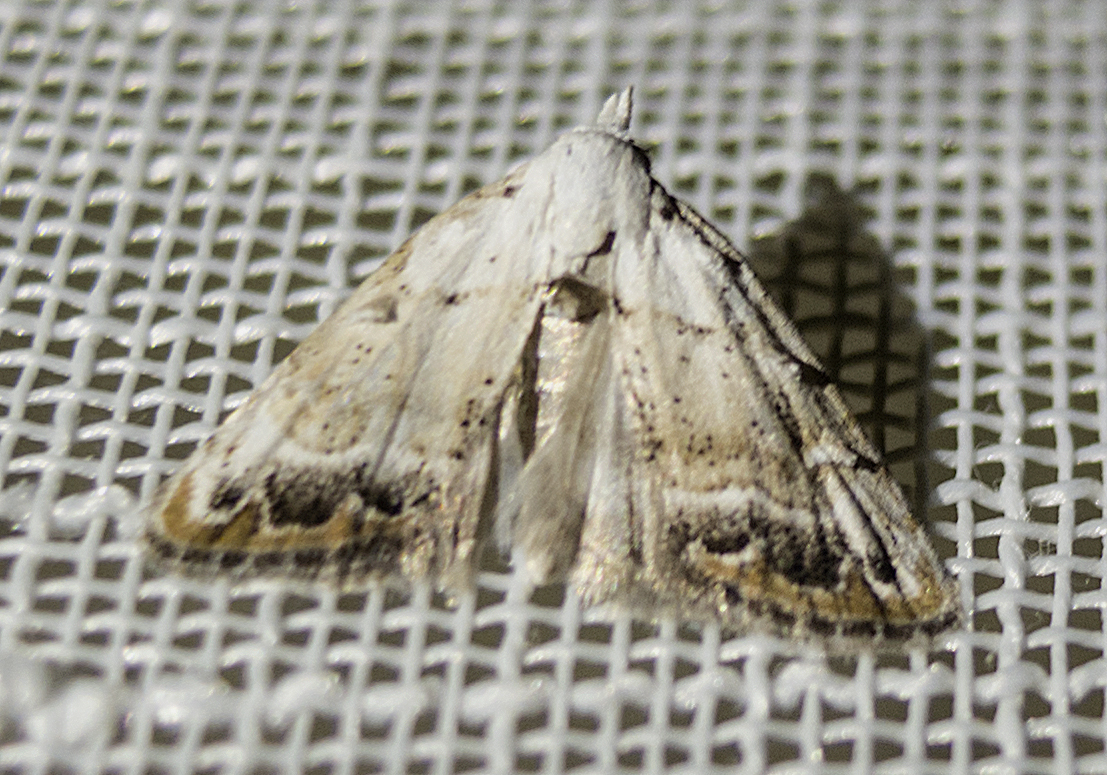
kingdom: Animalia
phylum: Arthropoda
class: Insecta
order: Lepidoptera
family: Nolidae
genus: Nola
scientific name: Nola chlamitulalis
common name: Jersey black arches
